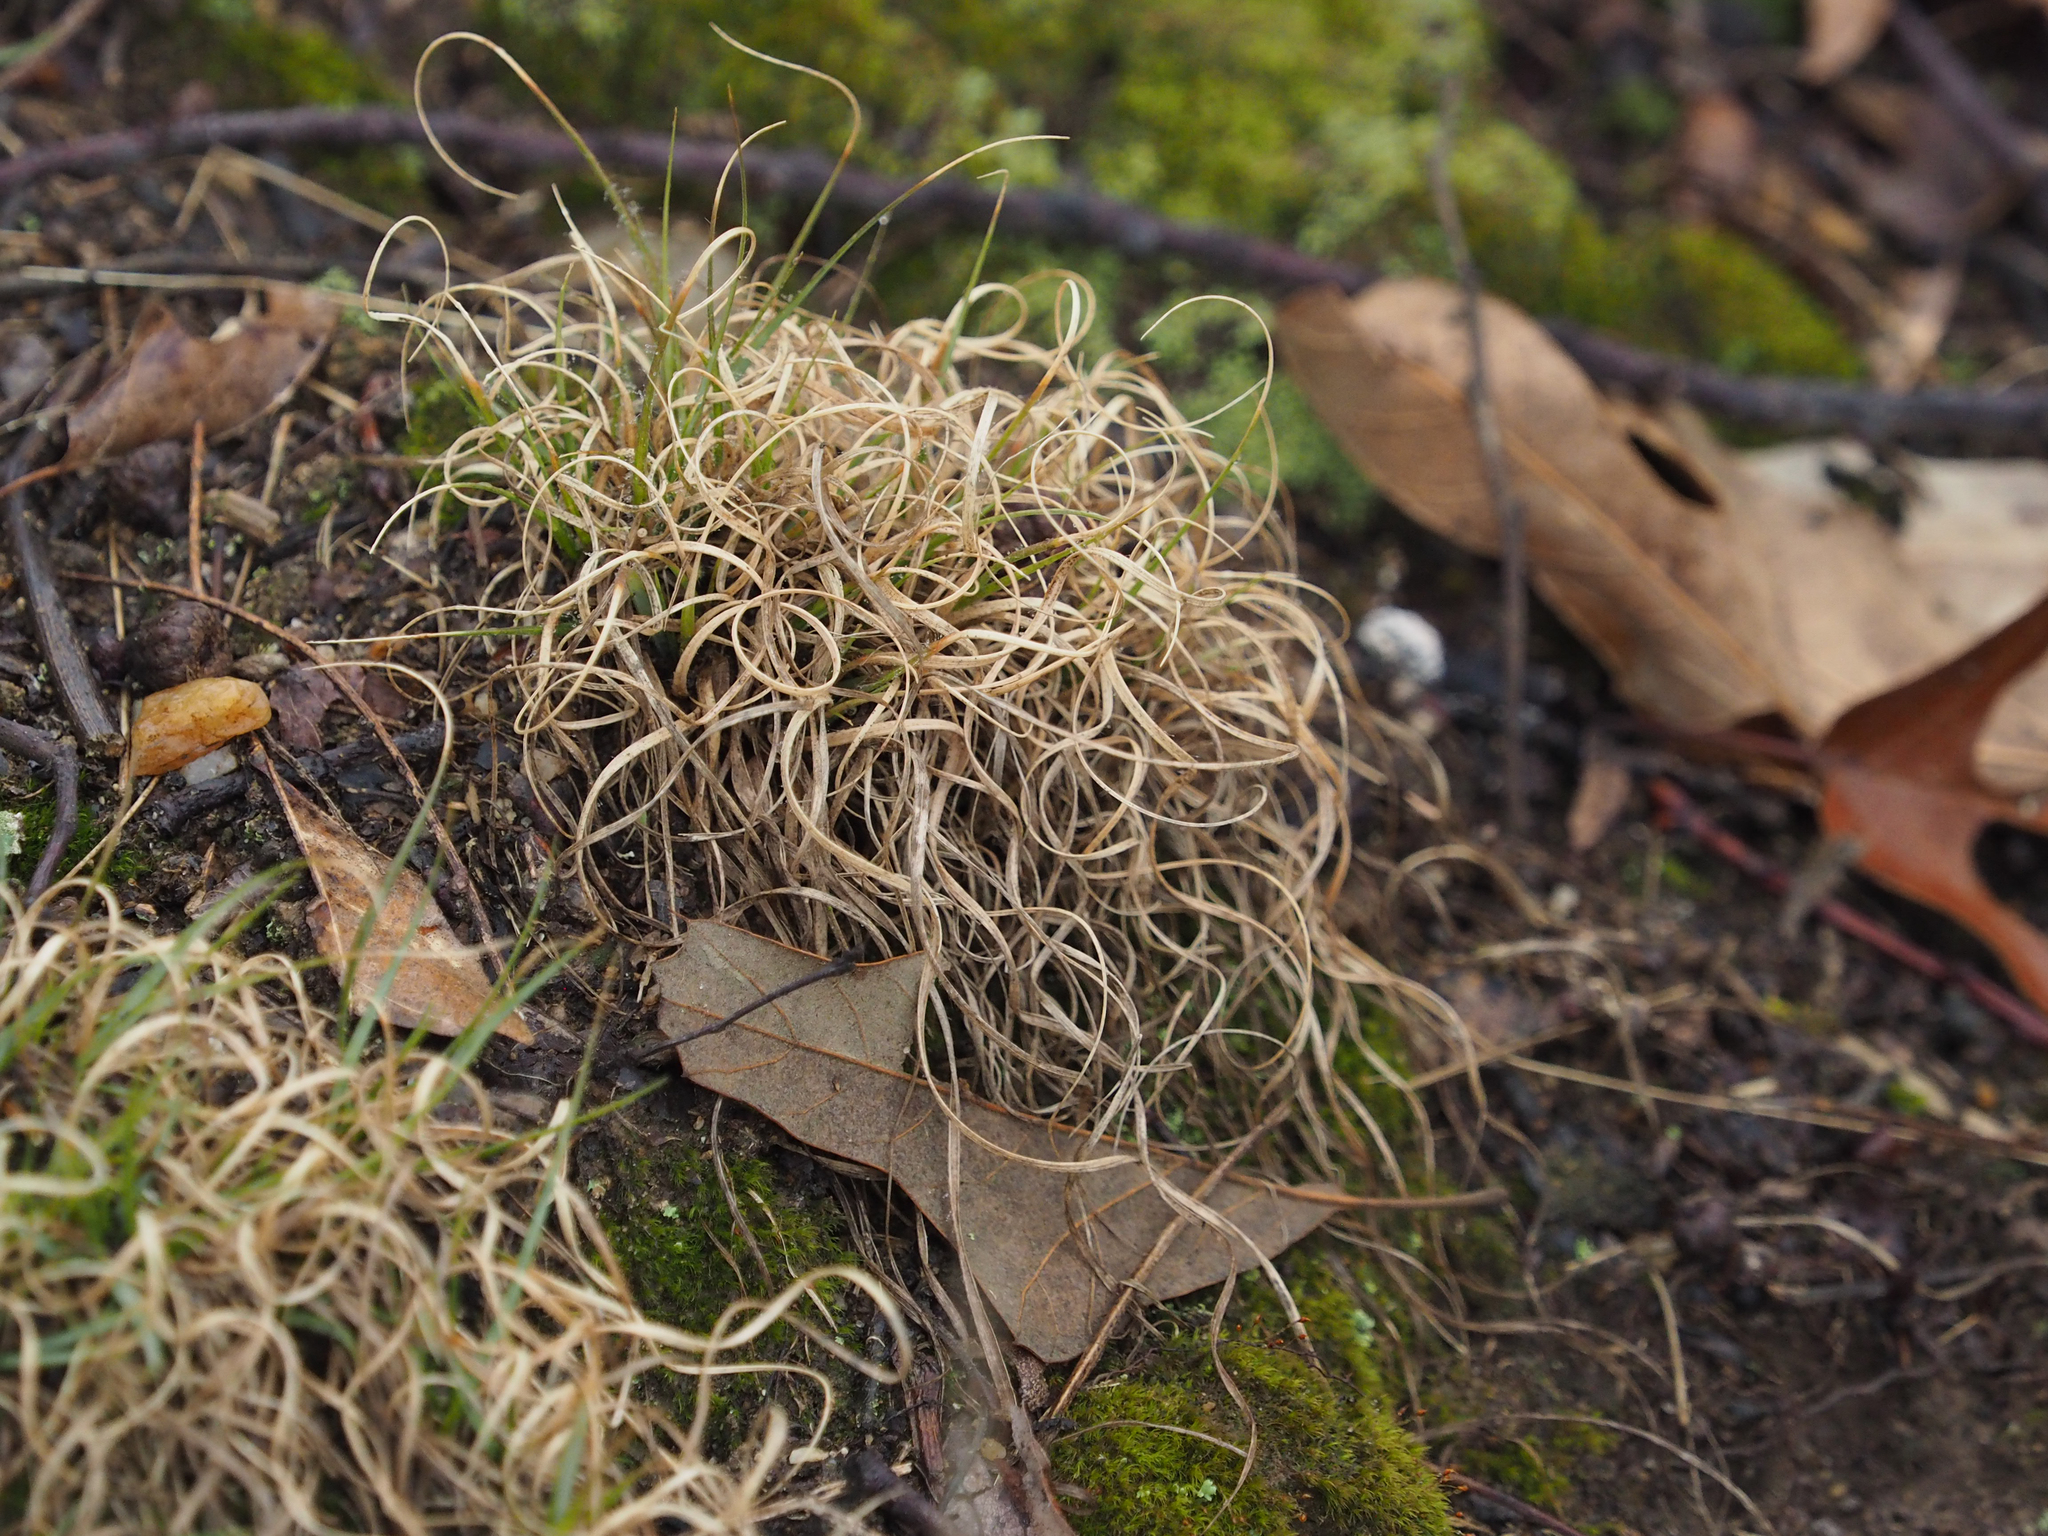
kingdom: Plantae
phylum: Tracheophyta
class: Liliopsida
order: Poales
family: Poaceae
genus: Danthonia
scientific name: Danthonia spicata
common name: Common wild oatgrass
